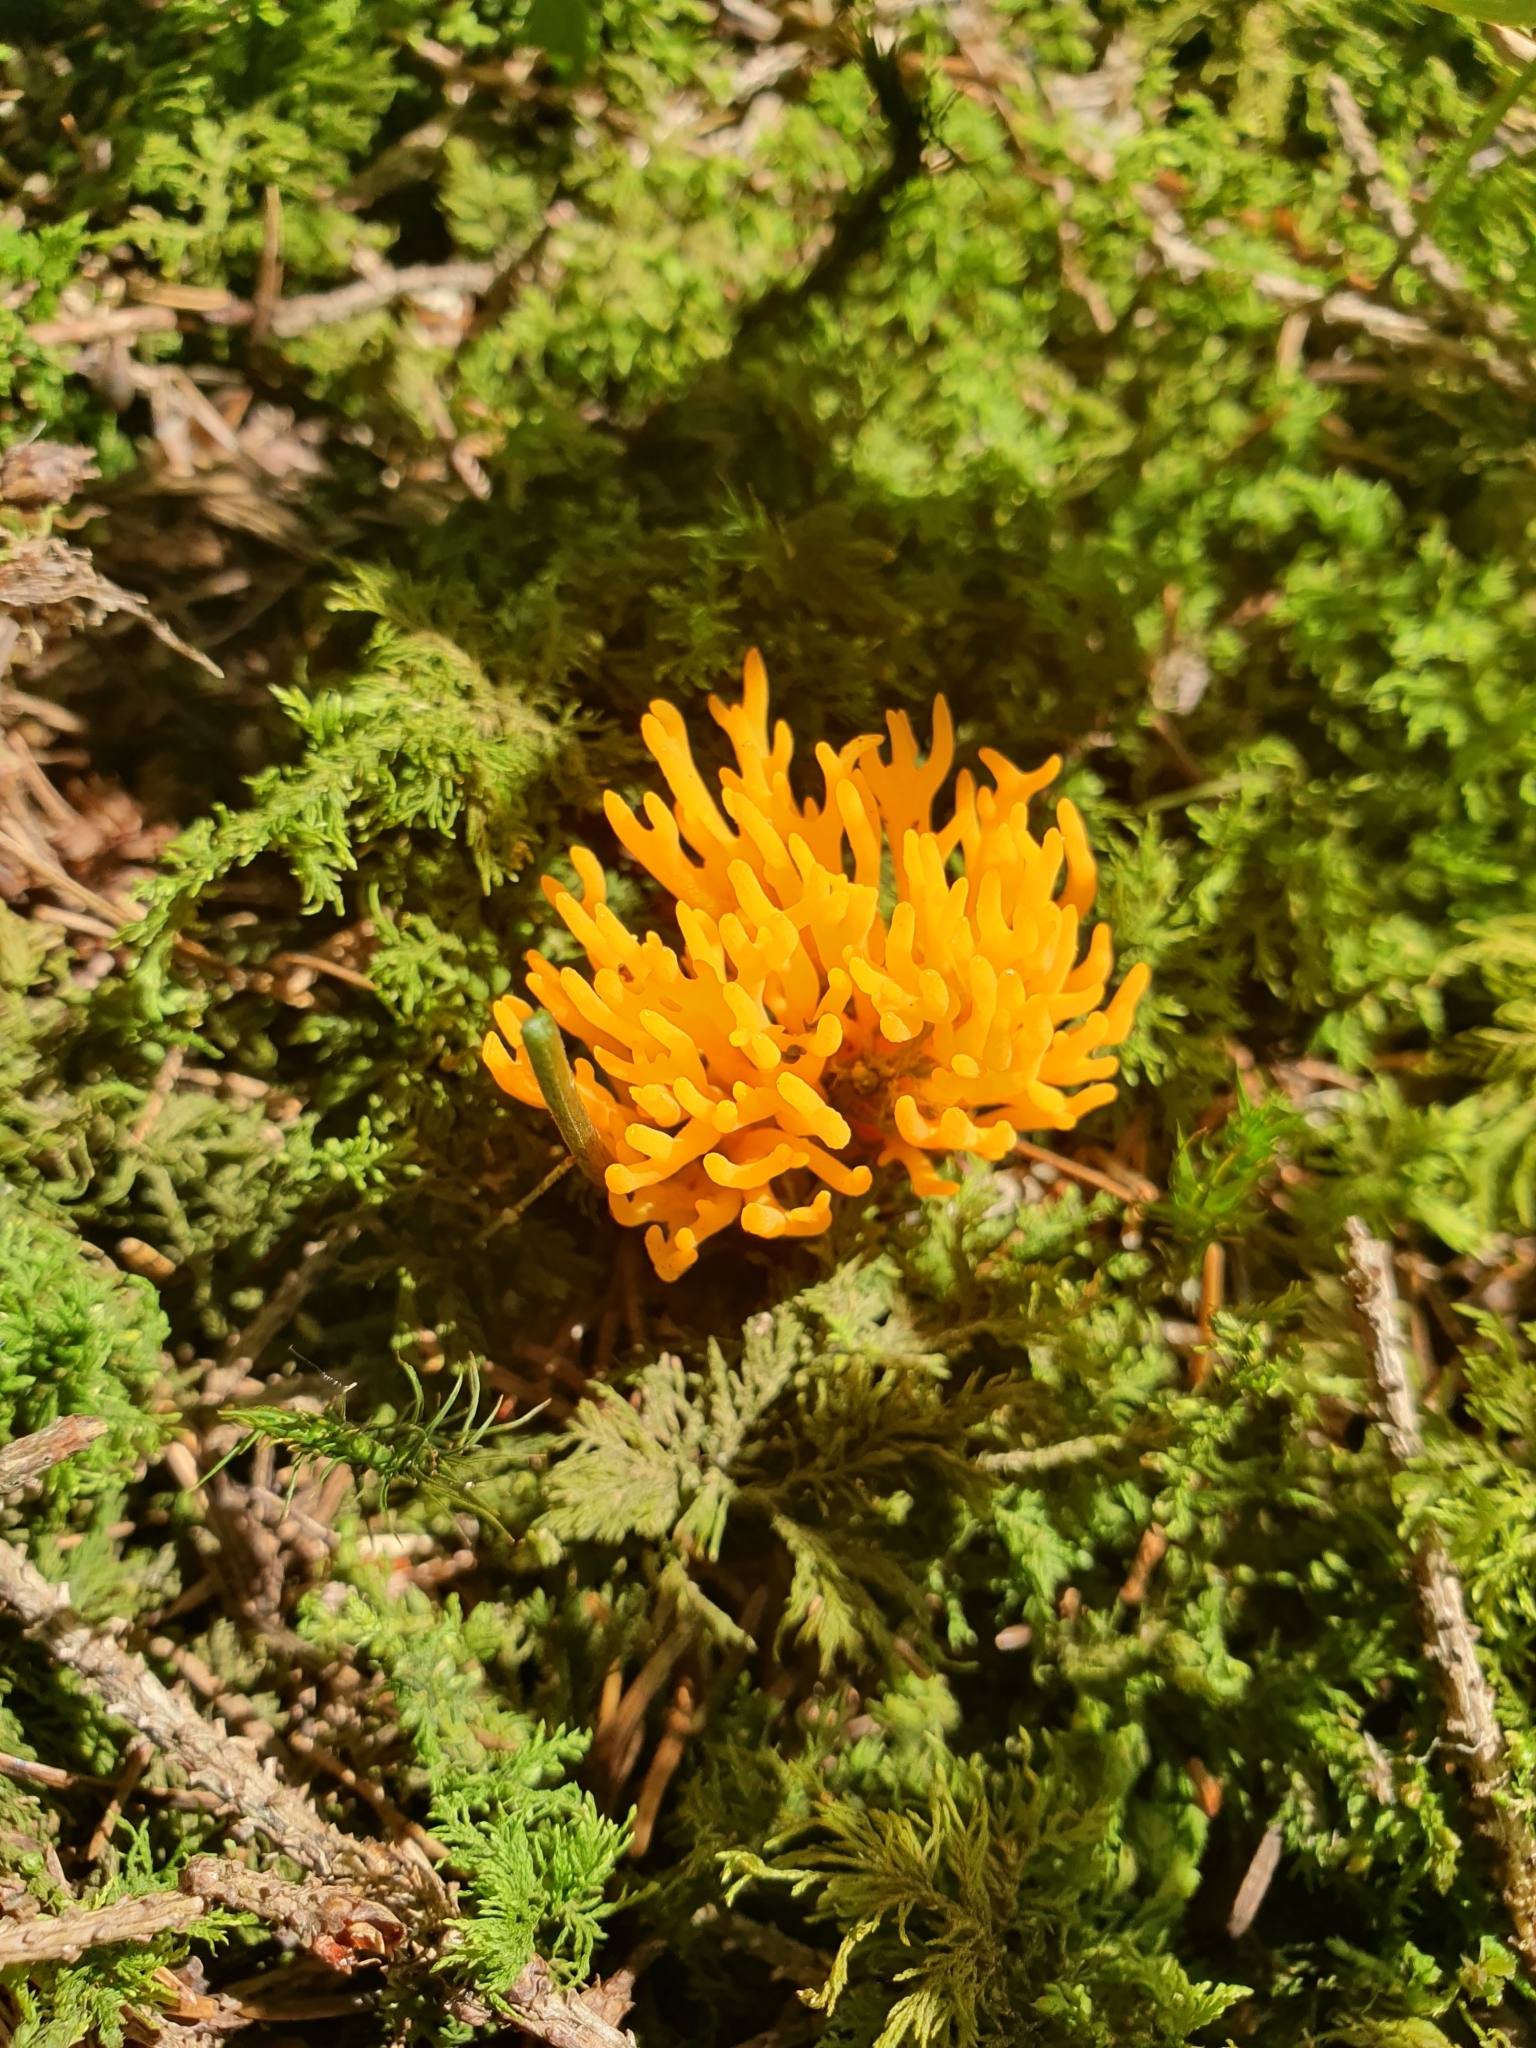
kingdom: Fungi
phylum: Basidiomycota
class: Dacrymycetes
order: Dacrymycetales
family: Dacrymycetaceae
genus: Calocera
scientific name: Calocera viscosa
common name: Yellow stagshorn
